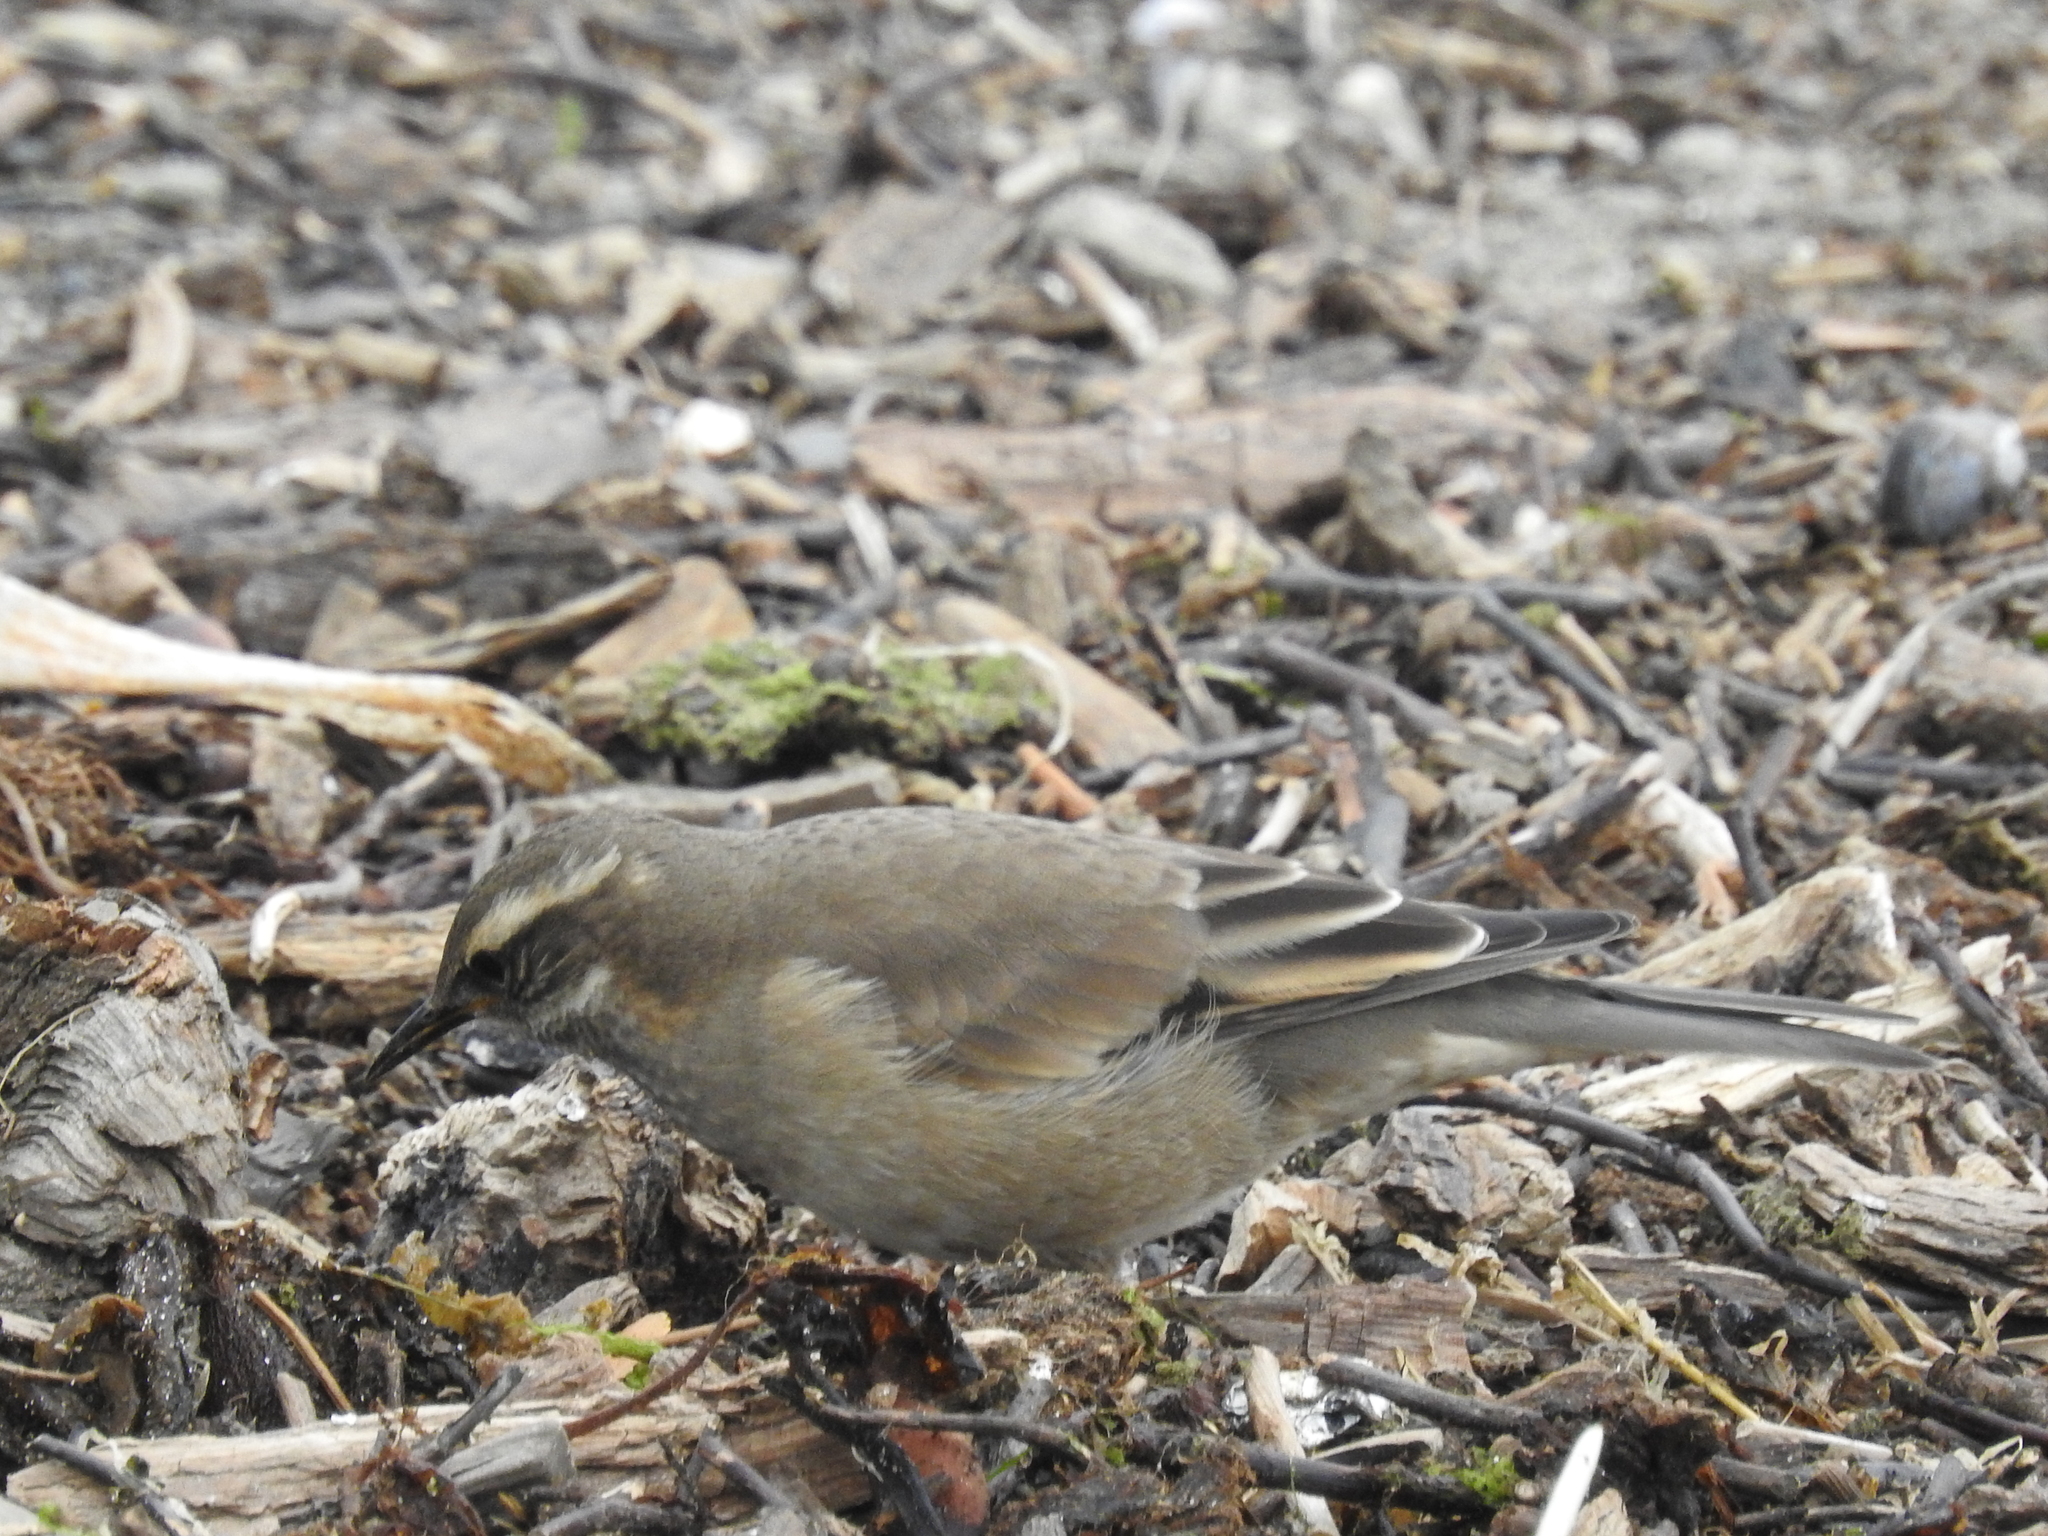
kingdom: Animalia
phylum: Chordata
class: Aves
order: Passeriformes
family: Furnariidae
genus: Cinclodes
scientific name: Cinclodes fuscus
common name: Buff-winged cinclodes
